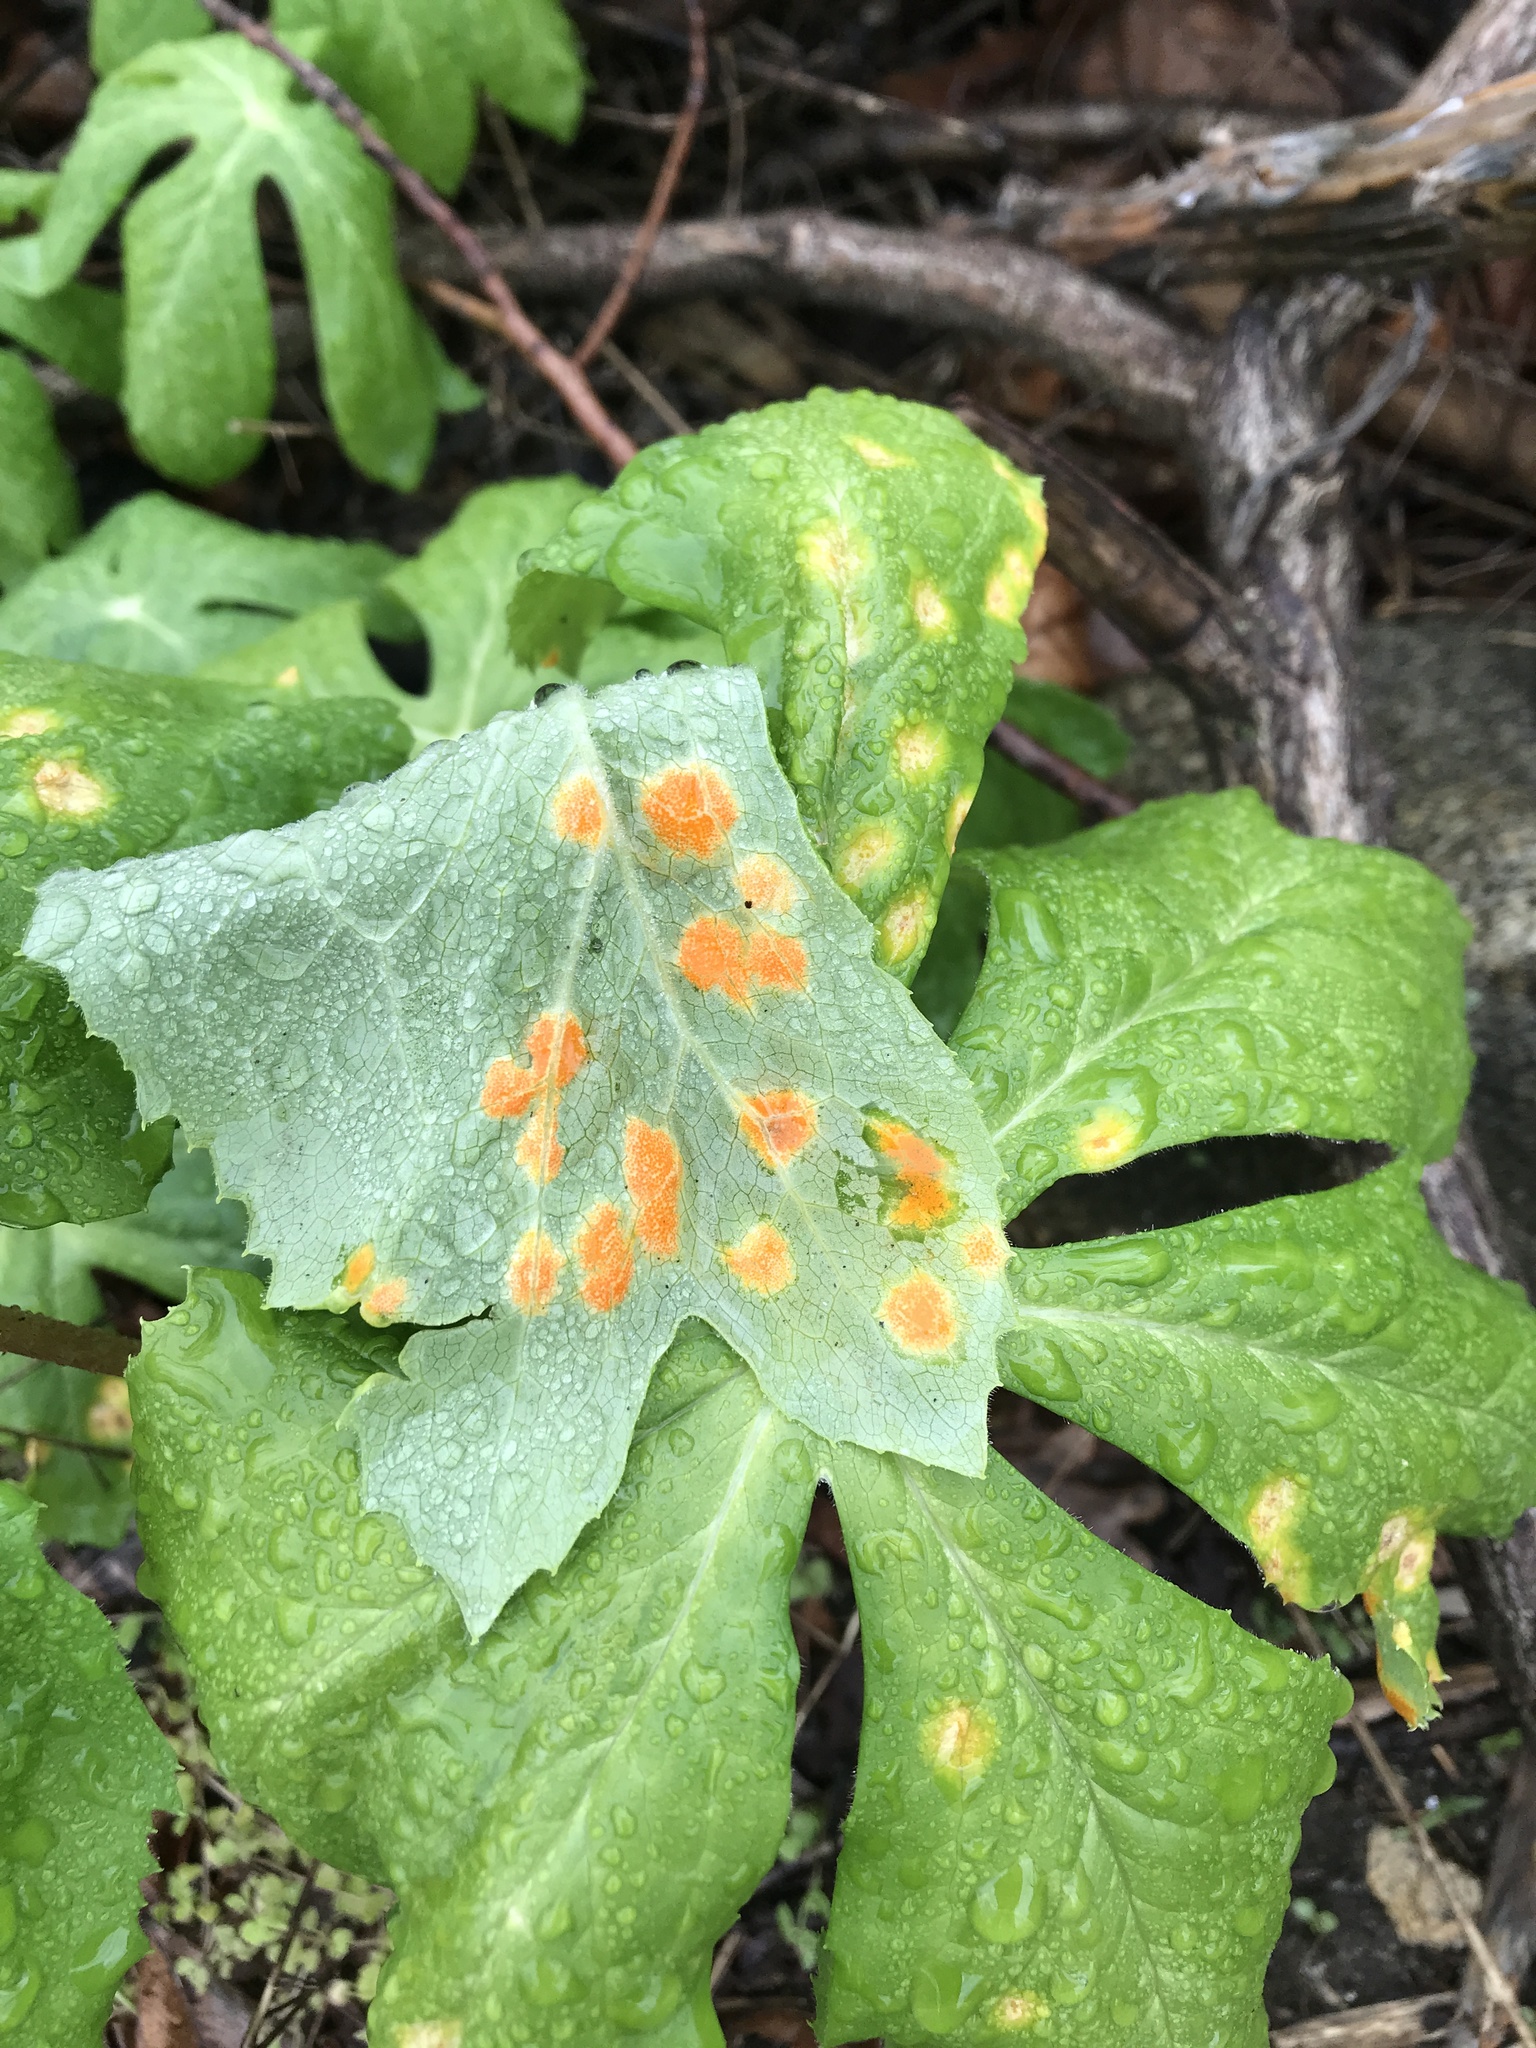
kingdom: Fungi
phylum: Basidiomycota
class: Pucciniomycetes
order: Pucciniales
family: Pucciniaceae
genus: Puccinia
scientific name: Puccinia podophylli
